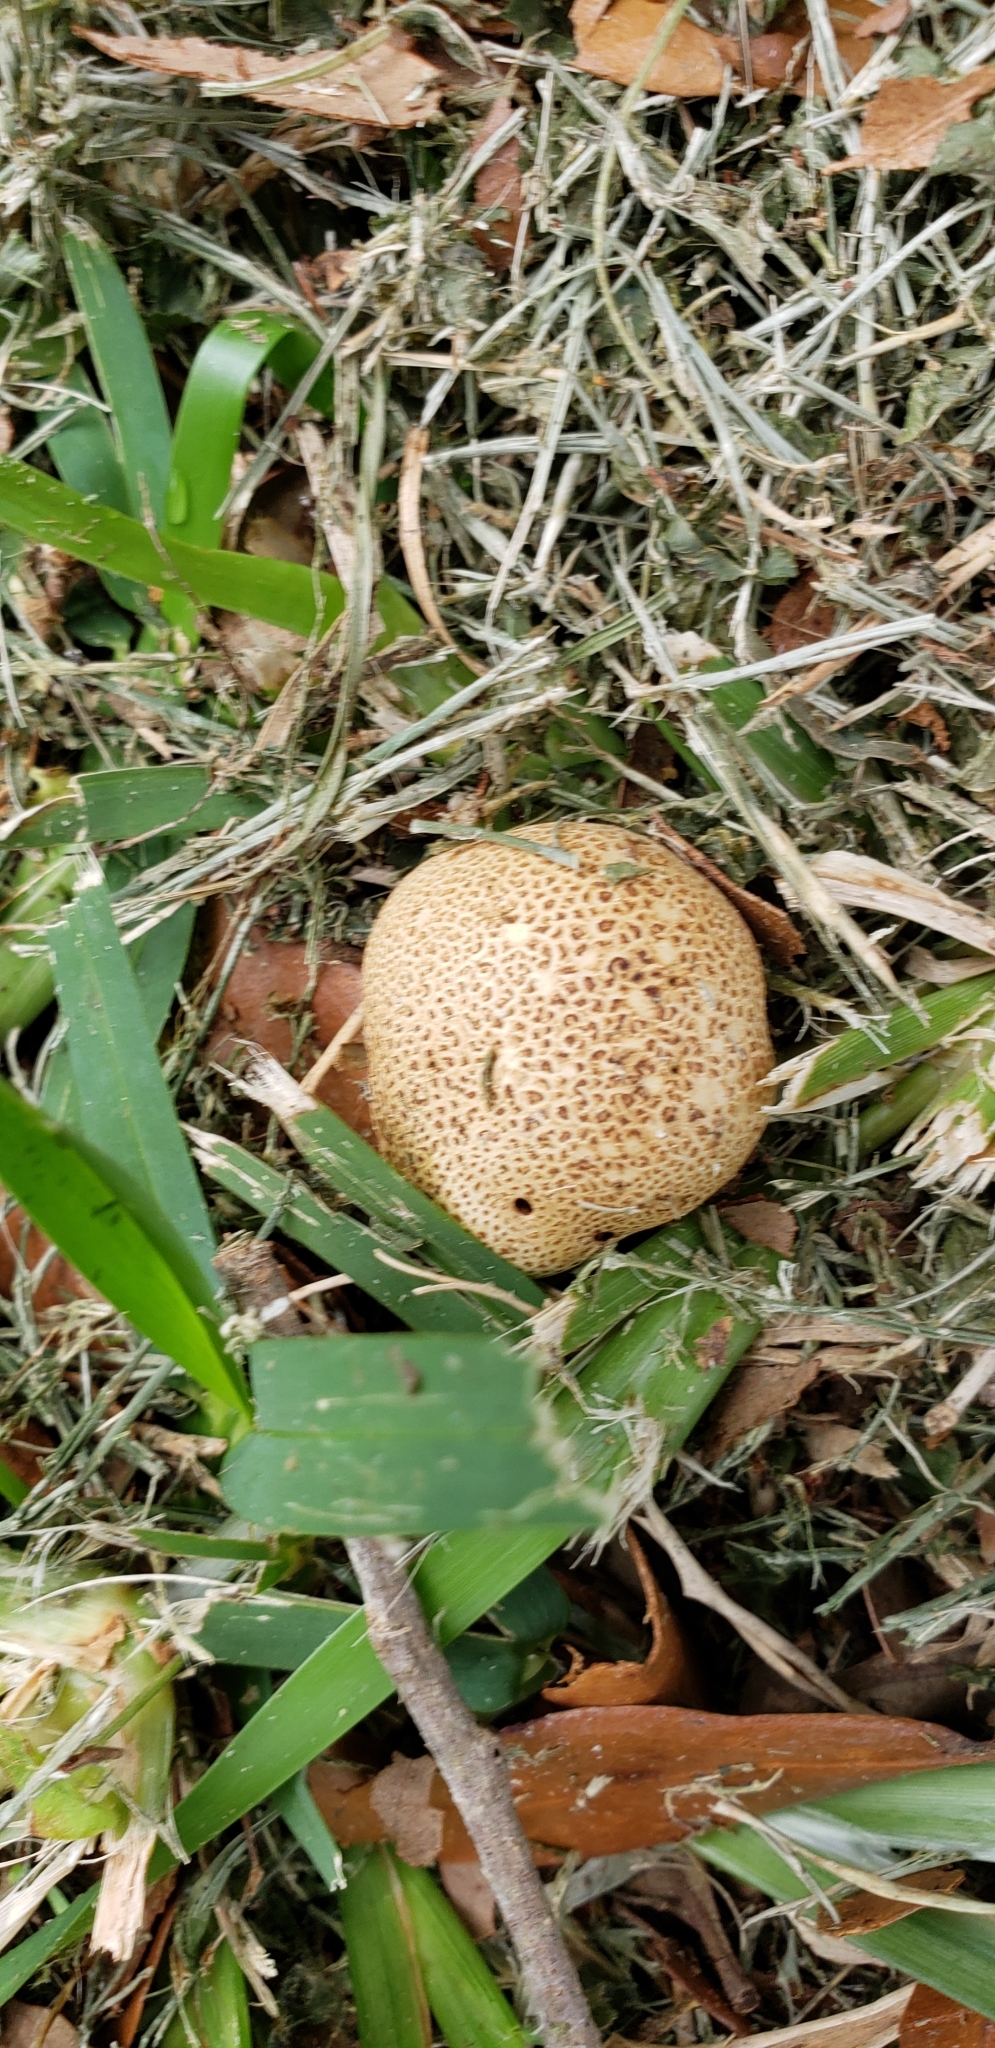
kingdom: Fungi
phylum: Basidiomycota
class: Agaricomycetes
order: Boletales
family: Sclerodermataceae
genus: Scleroderma
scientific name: Scleroderma citrinum
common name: Common earthball
